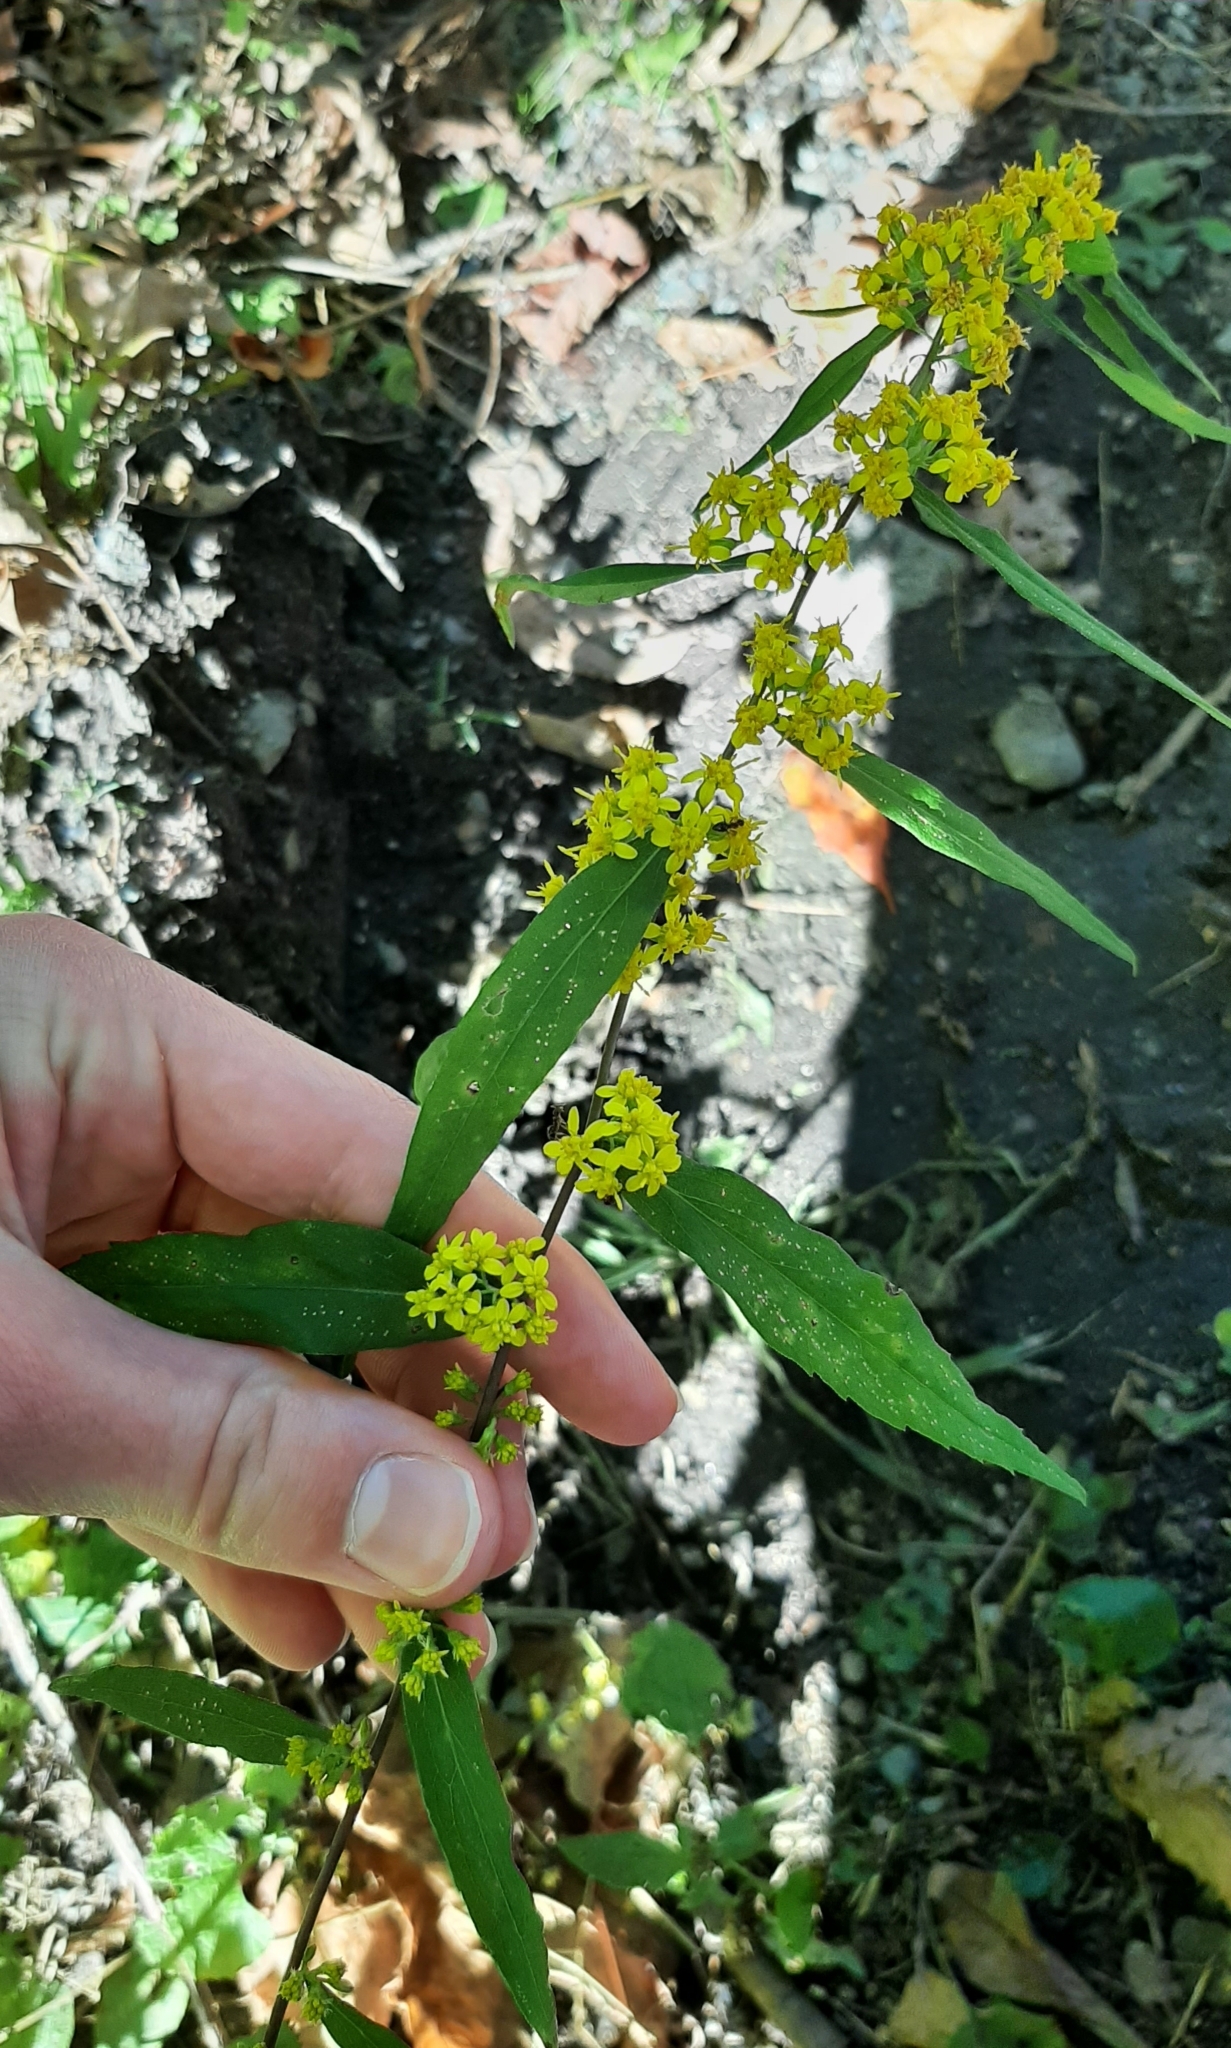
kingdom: Plantae
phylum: Tracheophyta
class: Magnoliopsida
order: Asterales
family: Asteraceae
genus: Solidago
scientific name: Solidago caesia
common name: Woodland goldenrod
